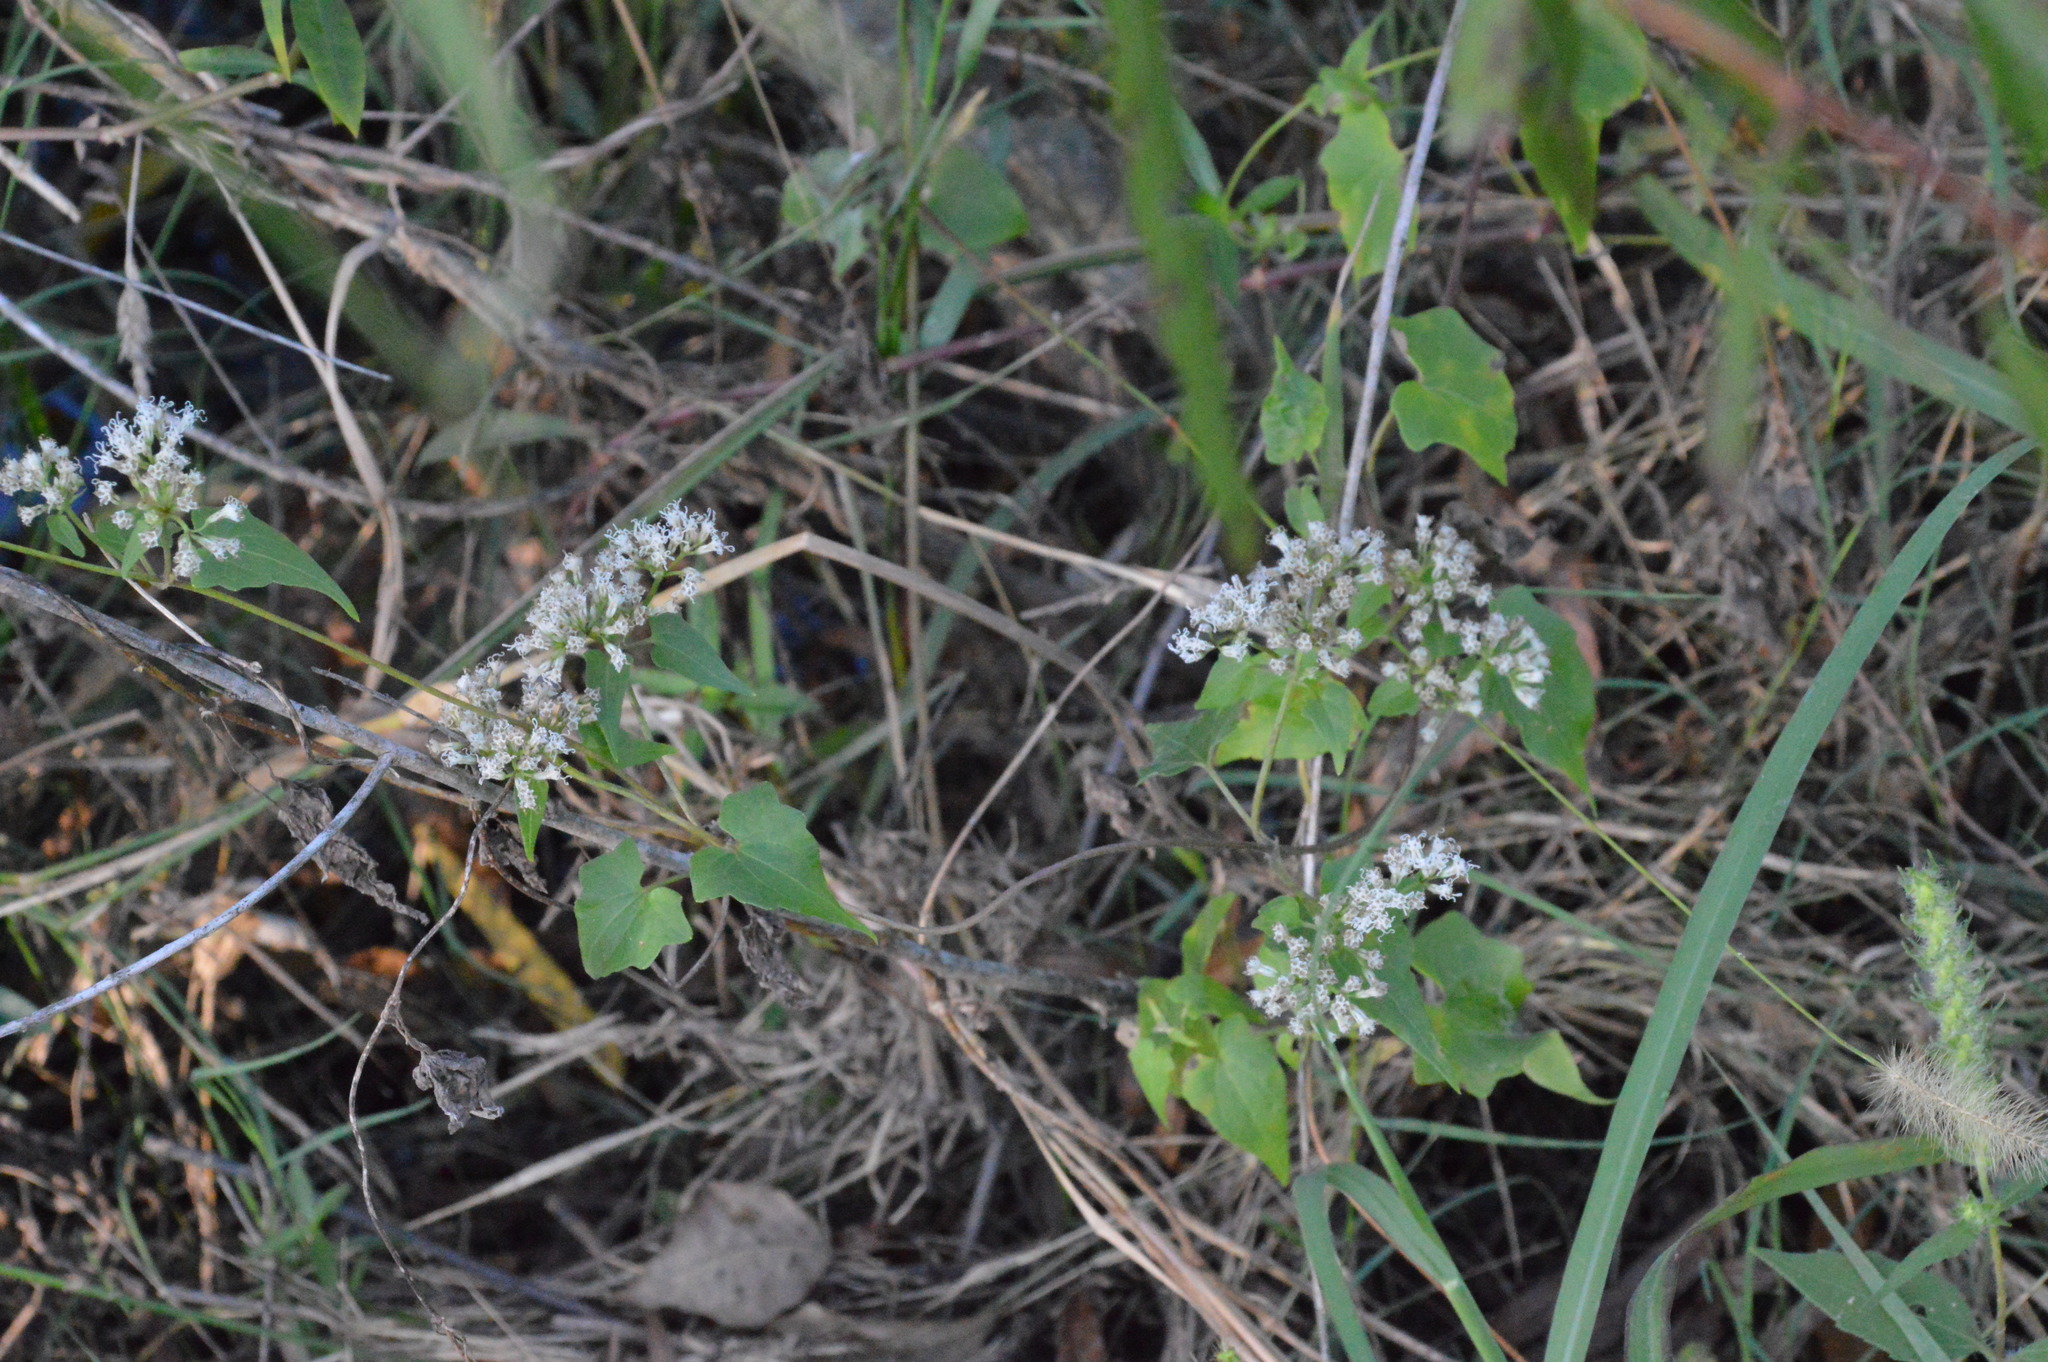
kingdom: Plantae
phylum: Tracheophyta
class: Magnoliopsida
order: Asterales
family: Asteraceae
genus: Mikania
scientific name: Mikania scandens
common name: Climbing hempvine
